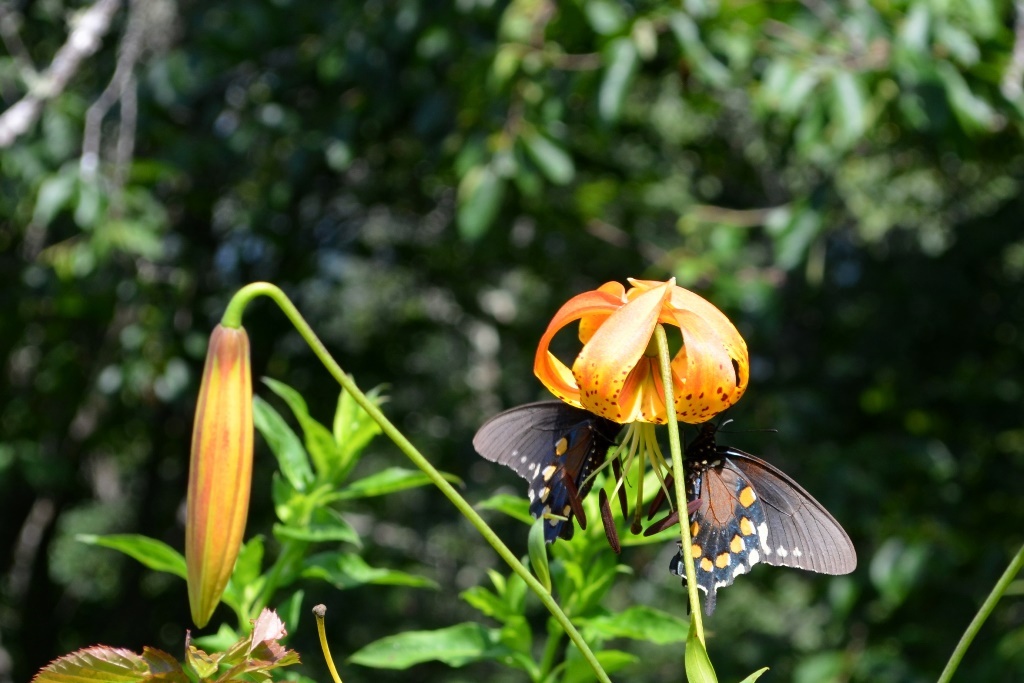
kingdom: Plantae
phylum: Tracheophyta
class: Liliopsida
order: Liliales
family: Liliaceae
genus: Lilium
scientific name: Lilium superbum
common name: American turk's-cap lily
